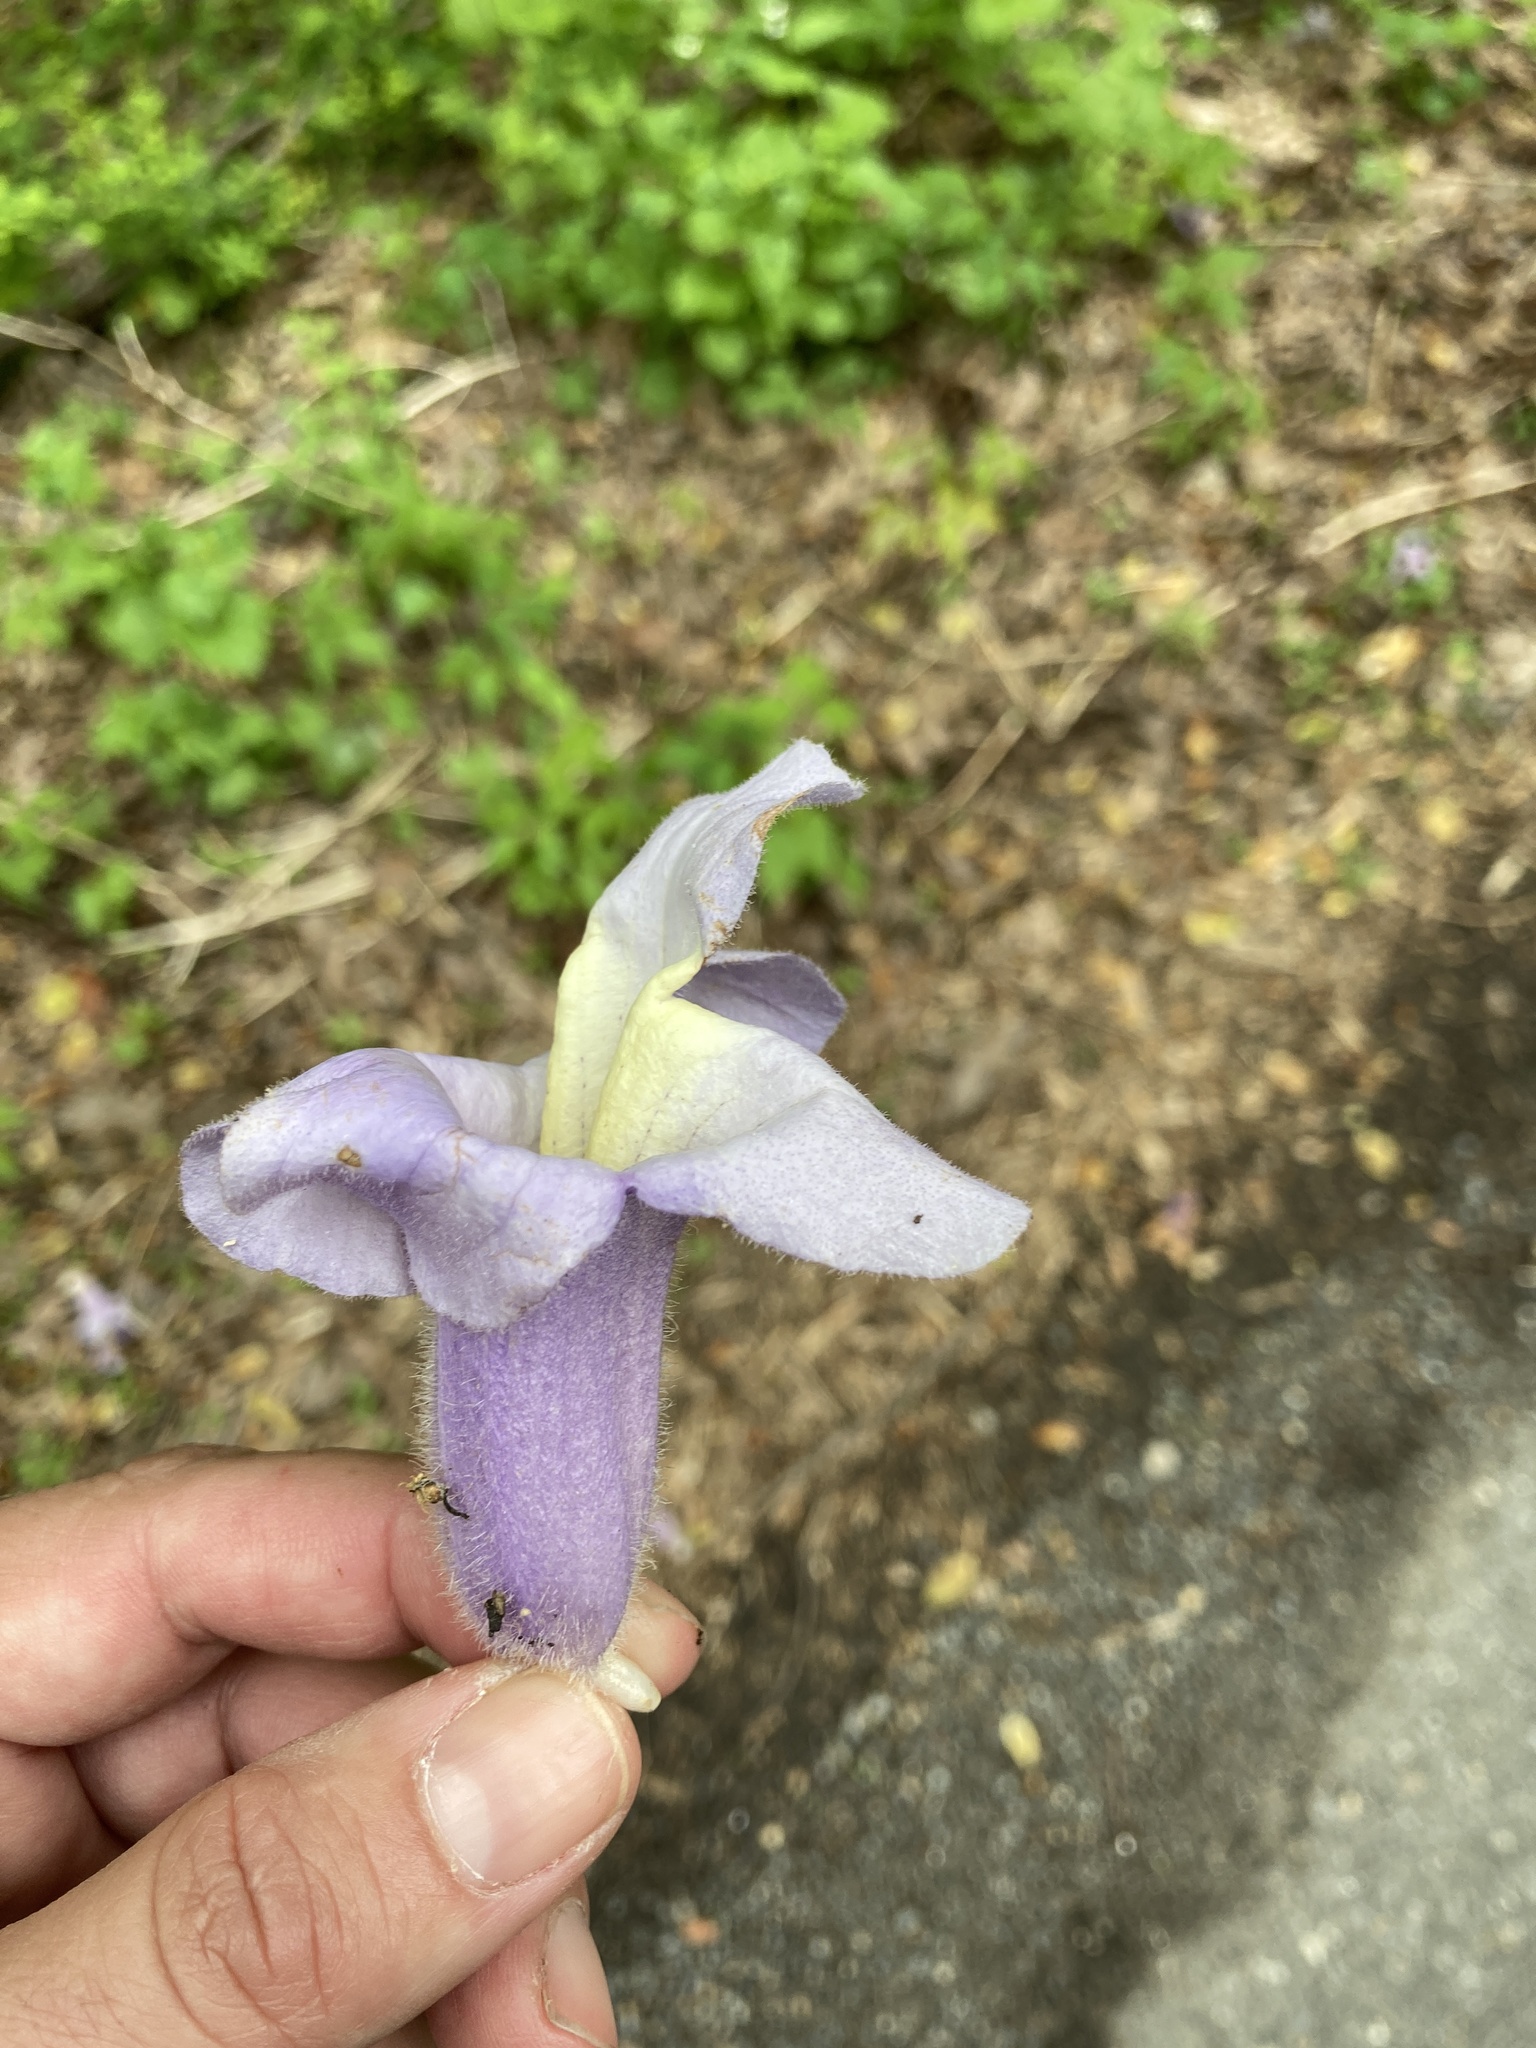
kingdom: Plantae
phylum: Tracheophyta
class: Magnoliopsida
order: Lamiales
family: Paulowniaceae
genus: Paulownia
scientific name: Paulownia tomentosa
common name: Foxglove-tree
